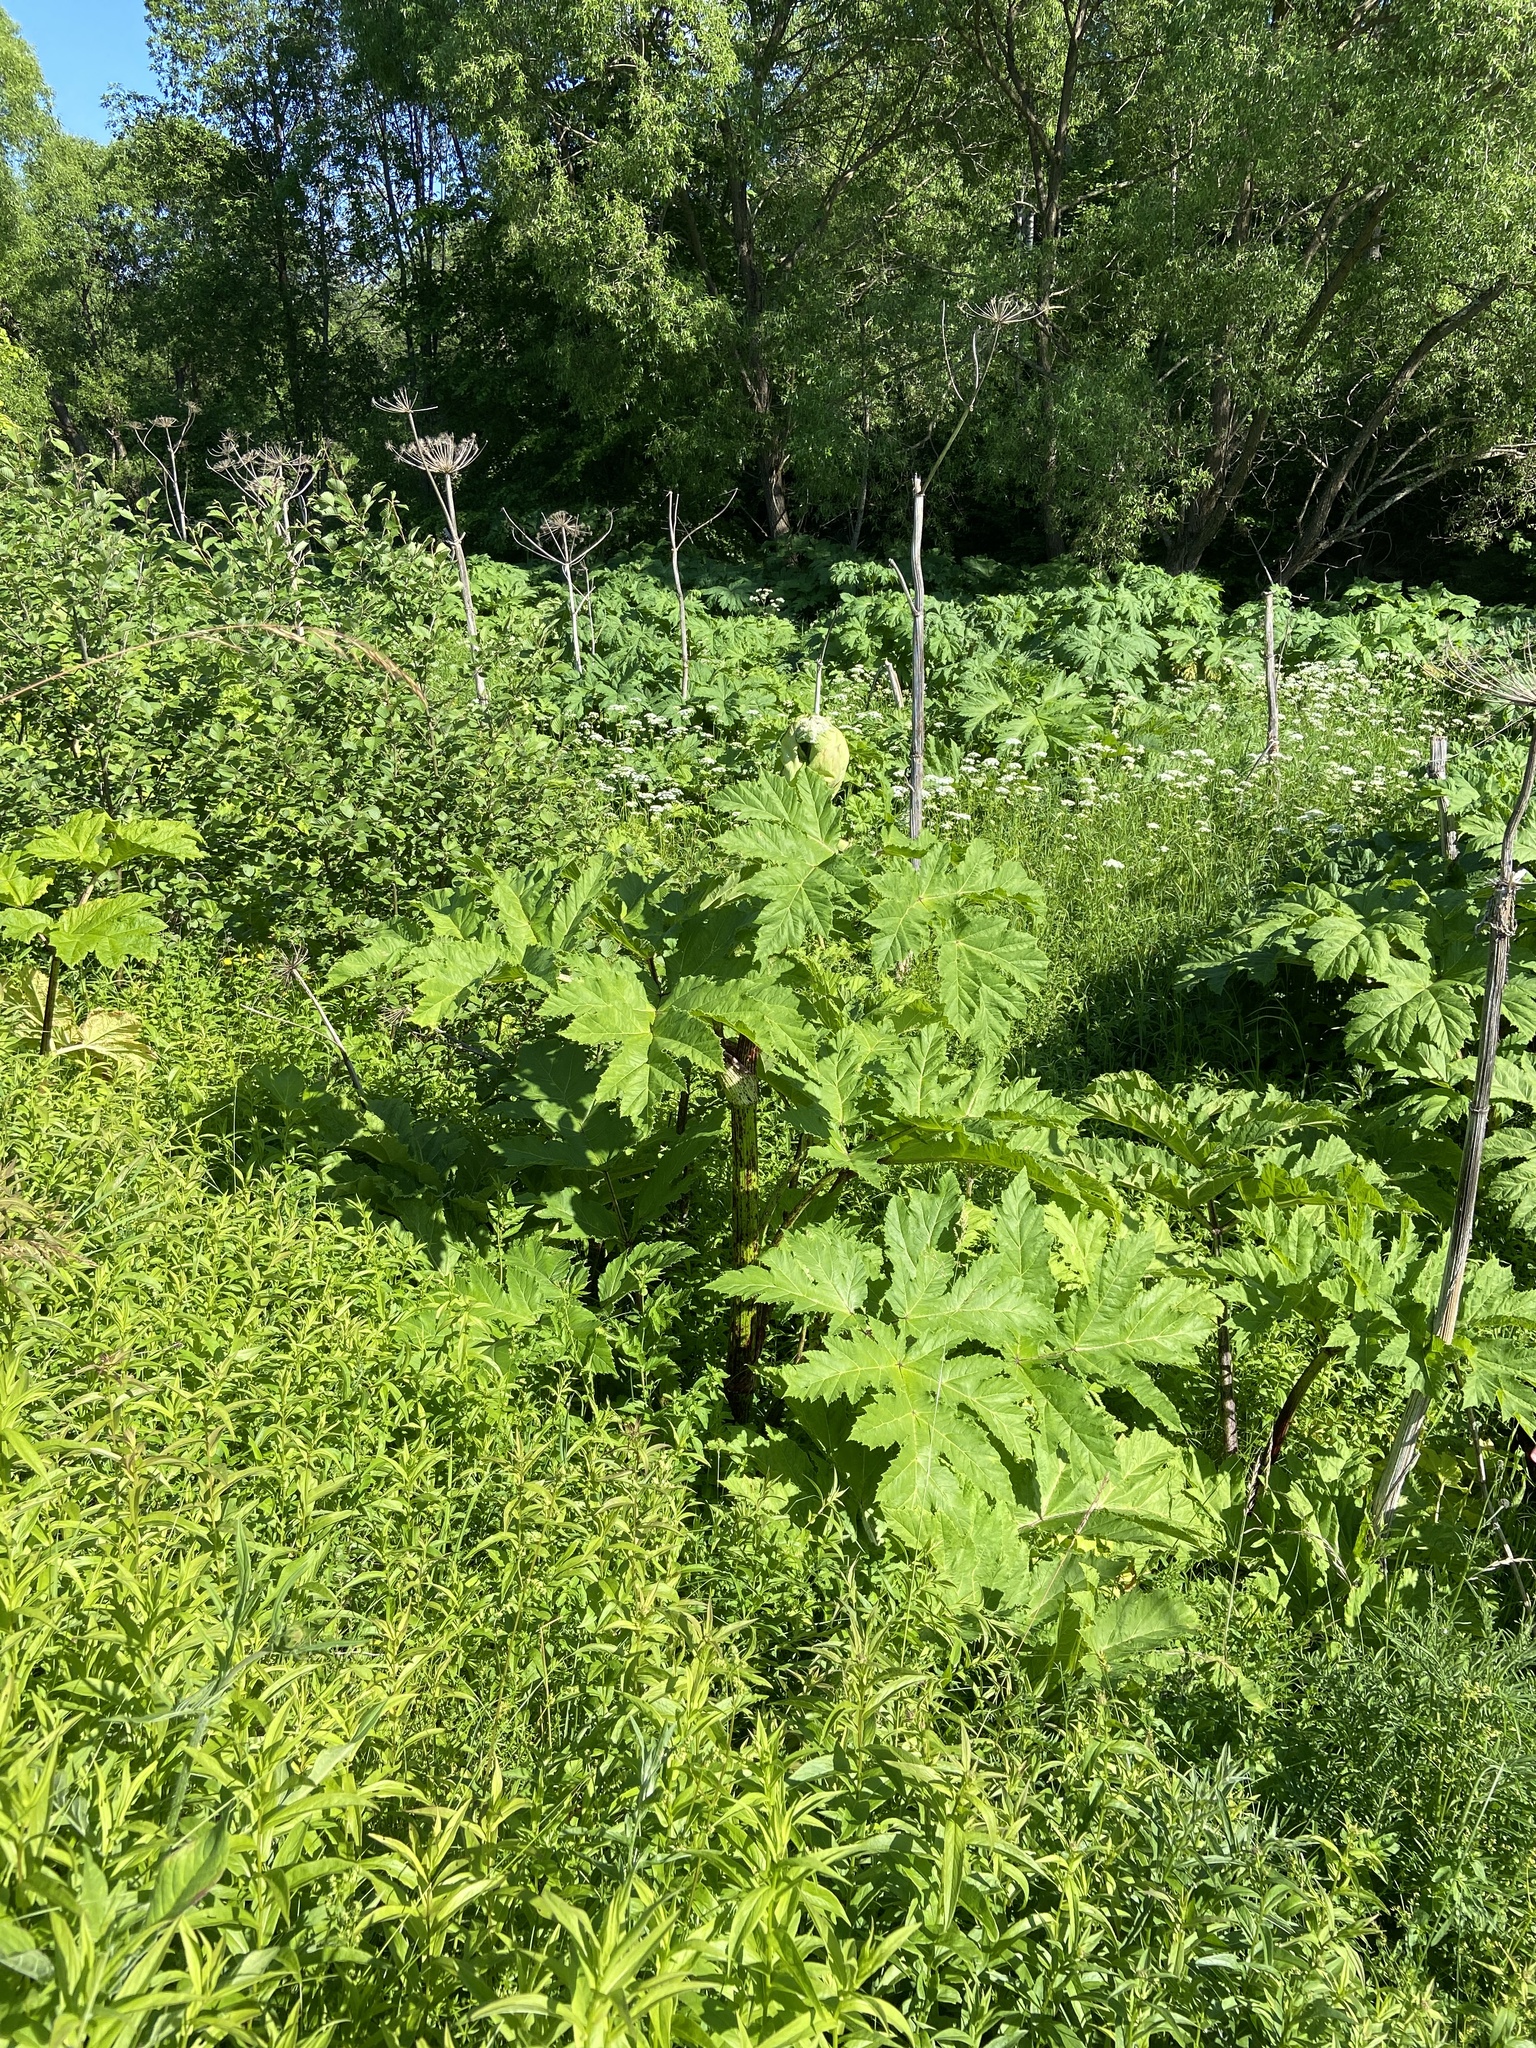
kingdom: Plantae
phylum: Tracheophyta
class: Magnoliopsida
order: Apiales
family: Apiaceae
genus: Heracleum
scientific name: Heracleum sosnowskyi
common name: Sosnowsky's hogweed
